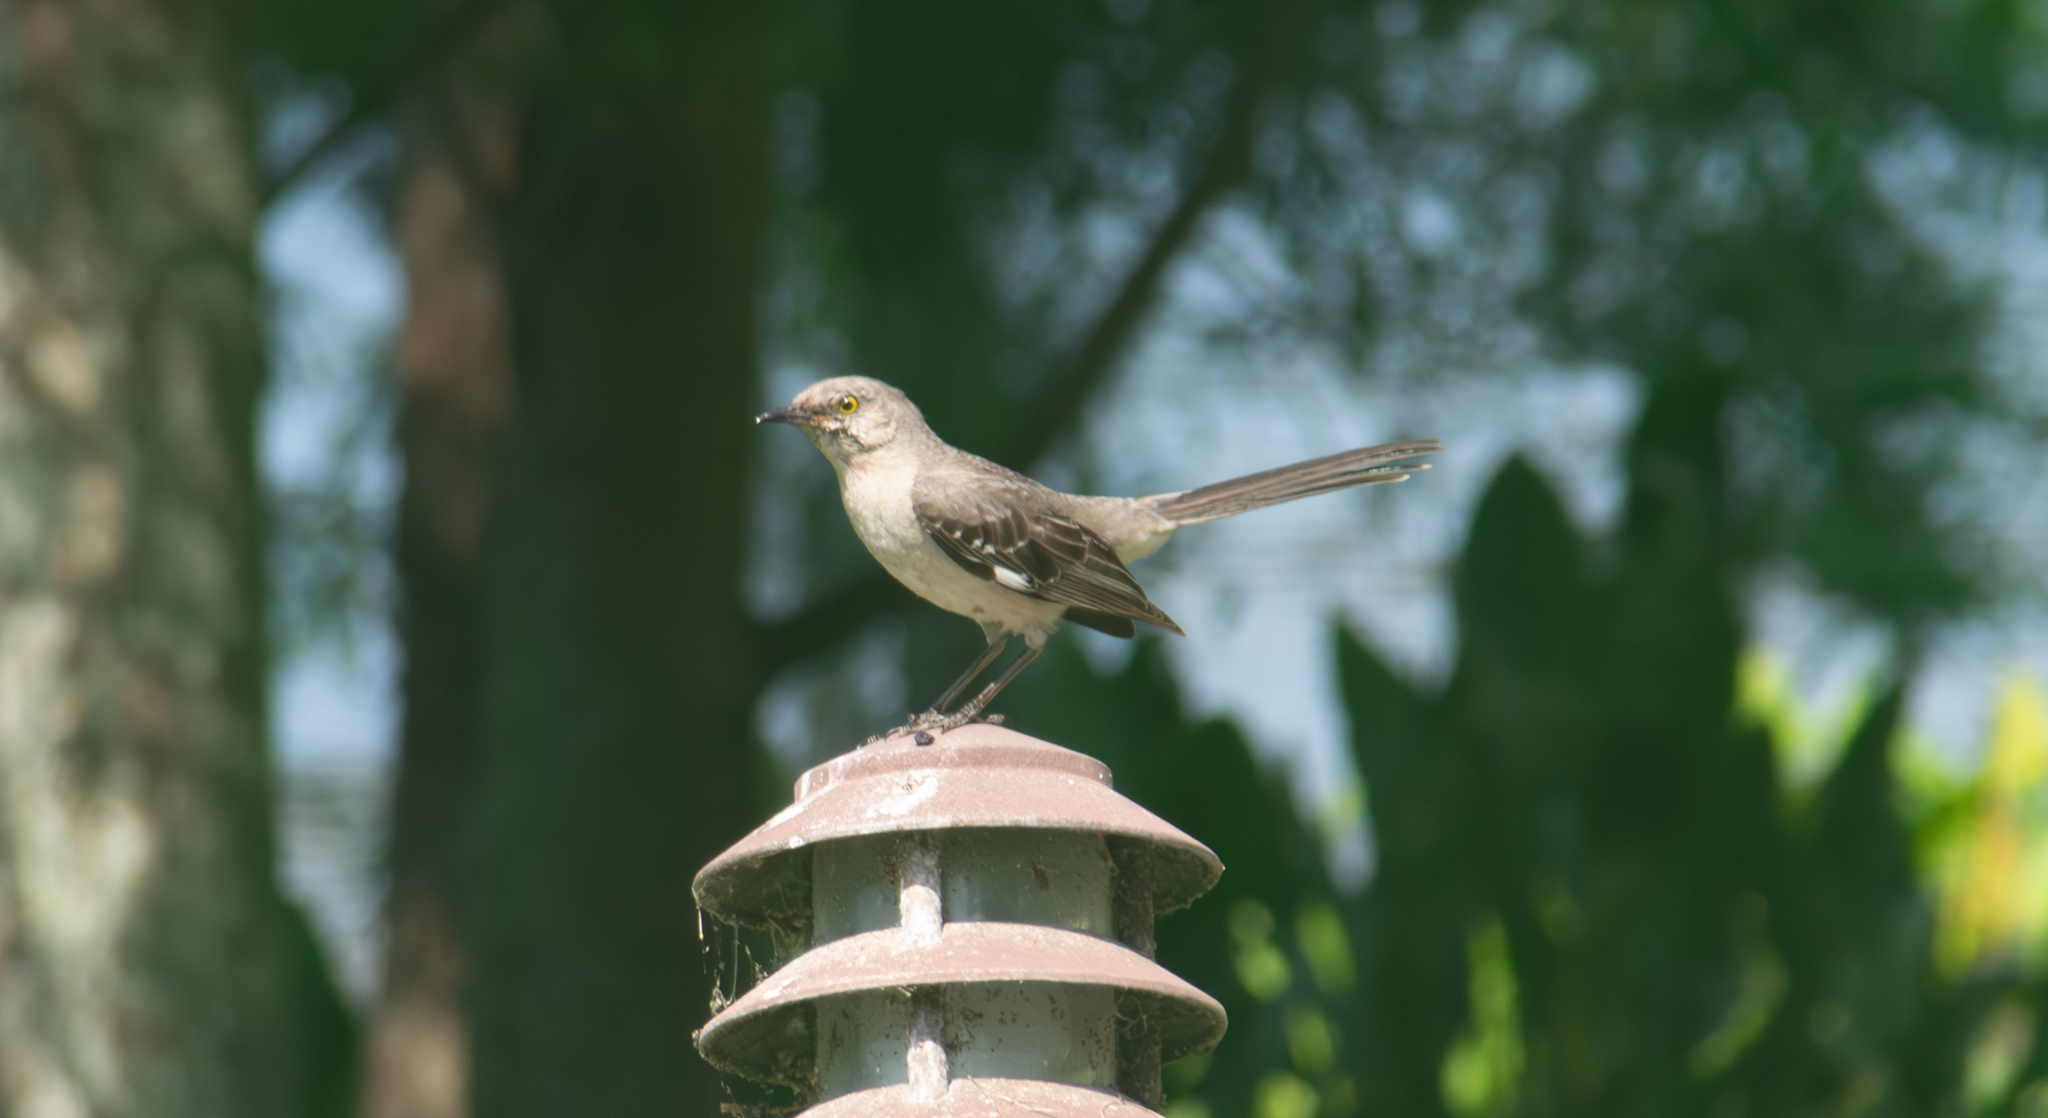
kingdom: Animalia
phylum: Chordata
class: Aves
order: Passeriformes
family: Mimidae
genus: Mimus
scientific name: Mimus polyglottos
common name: Northern mockingbird
